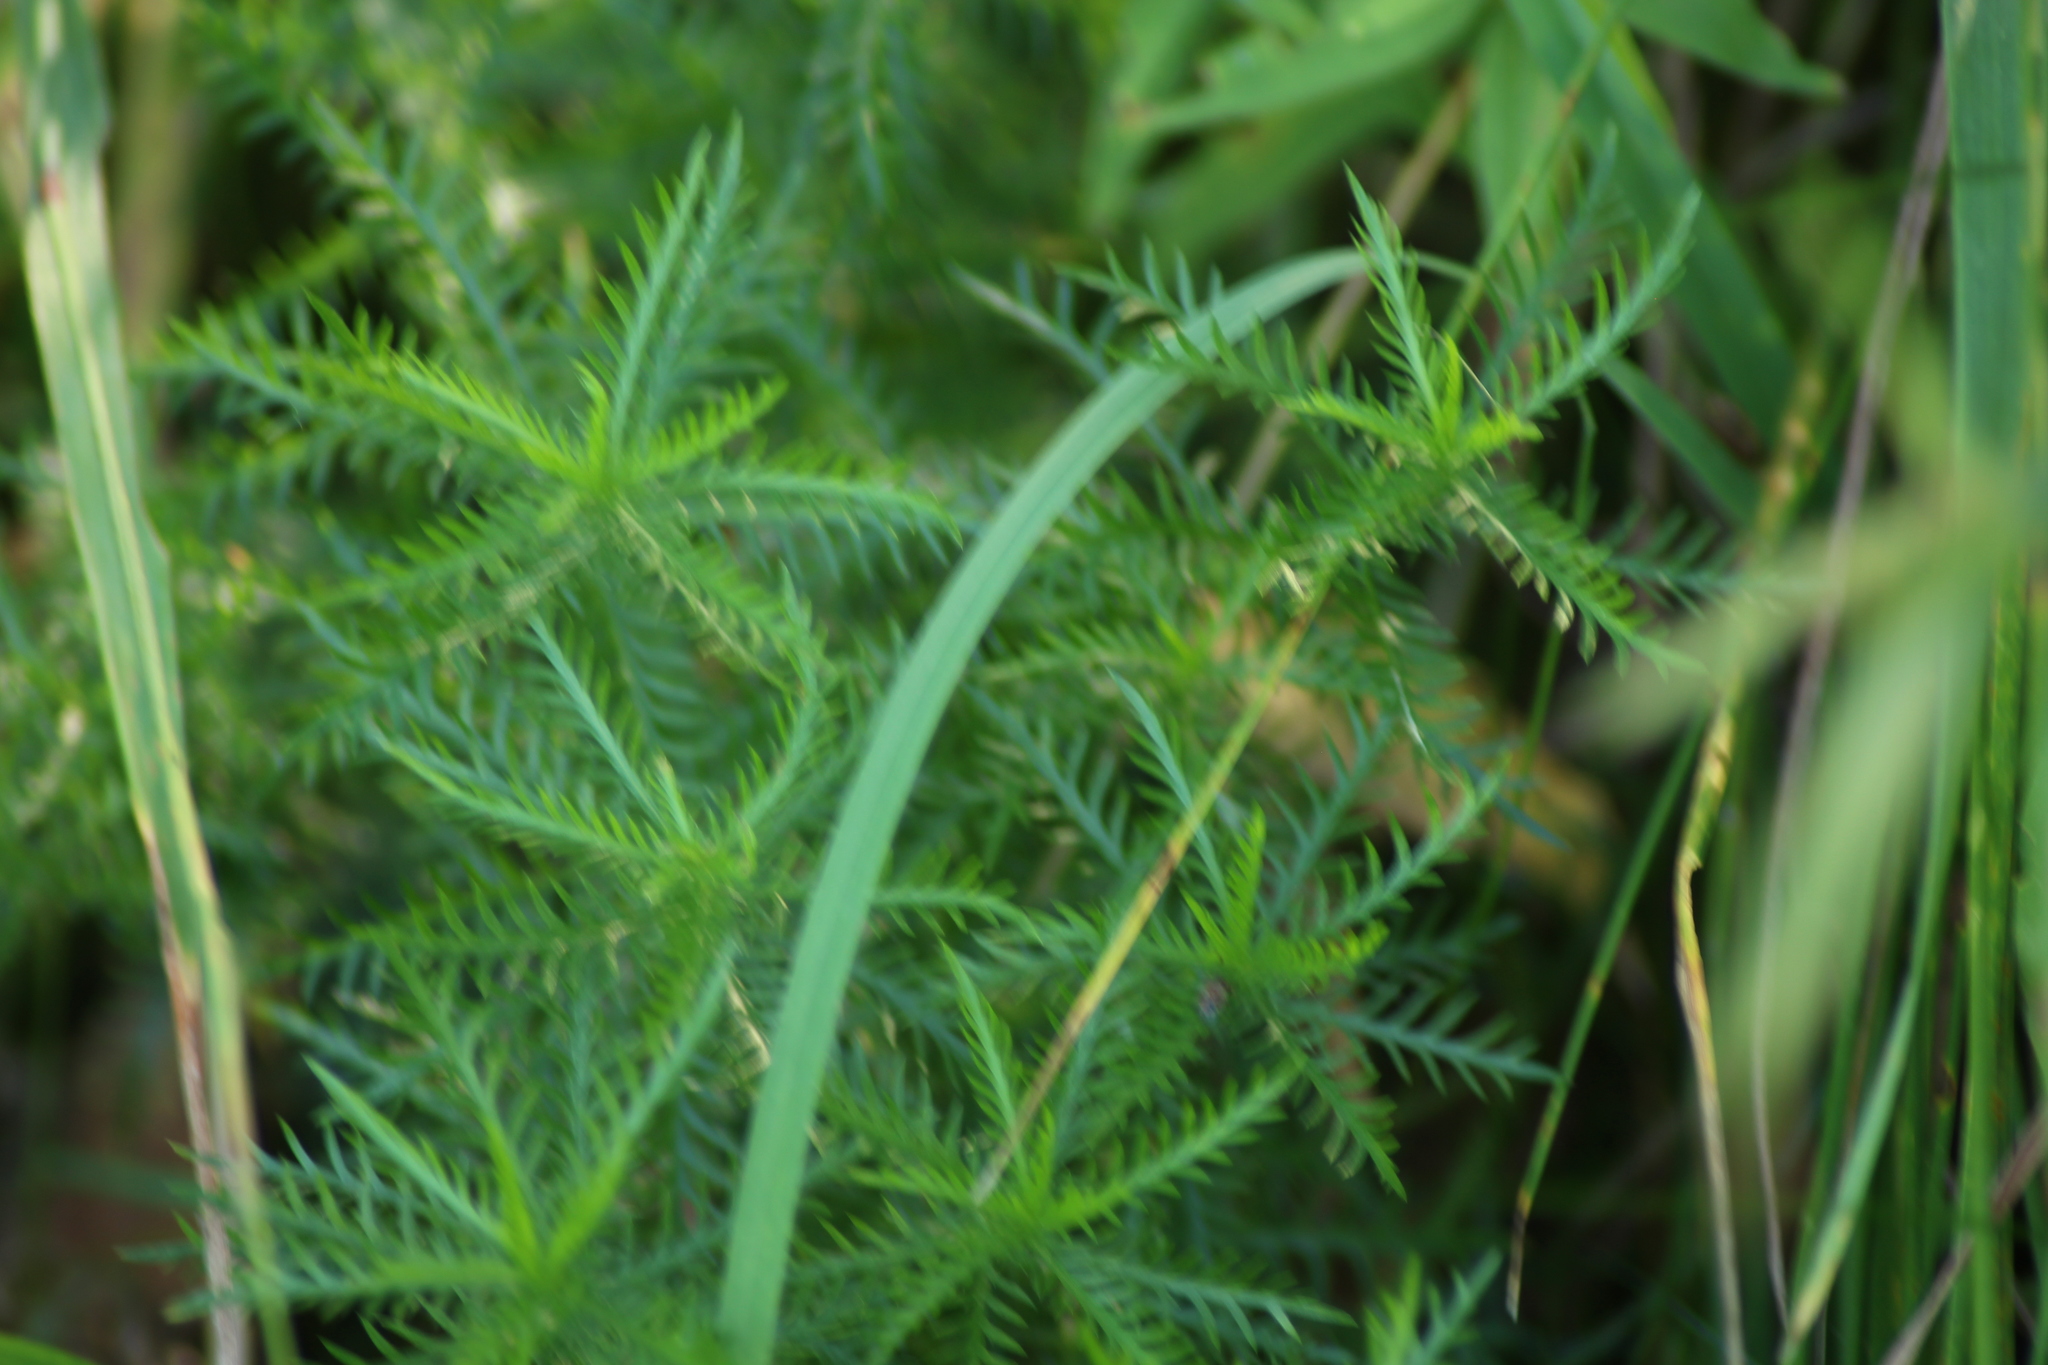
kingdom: Plantae
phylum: Tracheophyta
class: Magnoliopsida
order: Asterales
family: Asteraceae
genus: Achillea
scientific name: Achillea impatiens
